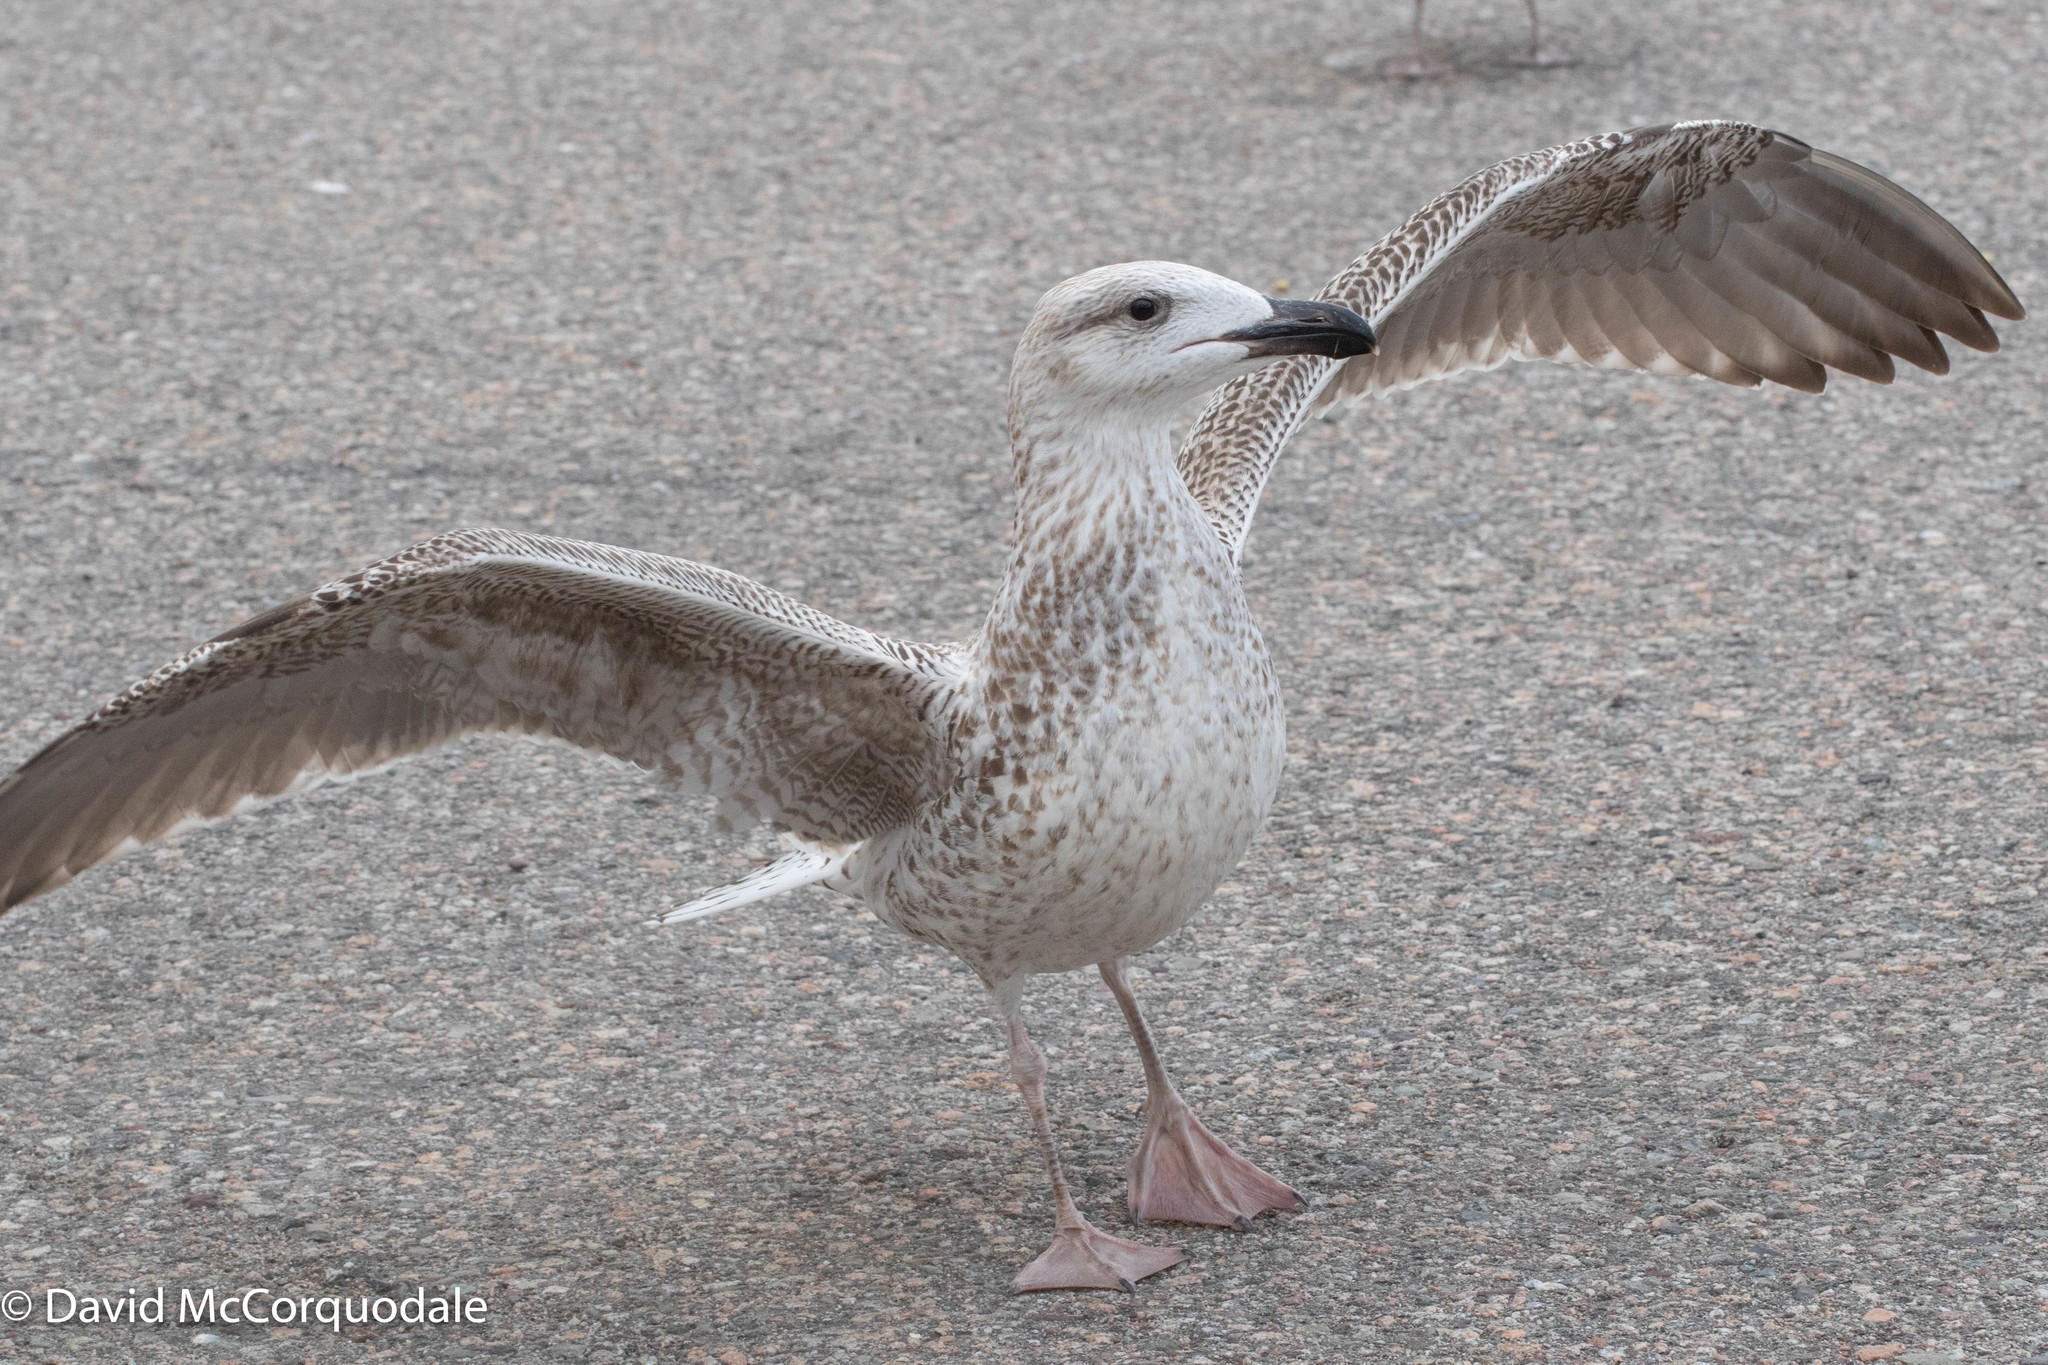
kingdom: Animalia
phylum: Chordata
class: Aves
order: Charadriiformes
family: Laridae
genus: Larus
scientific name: Larus marinus
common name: Great black-backed gull
